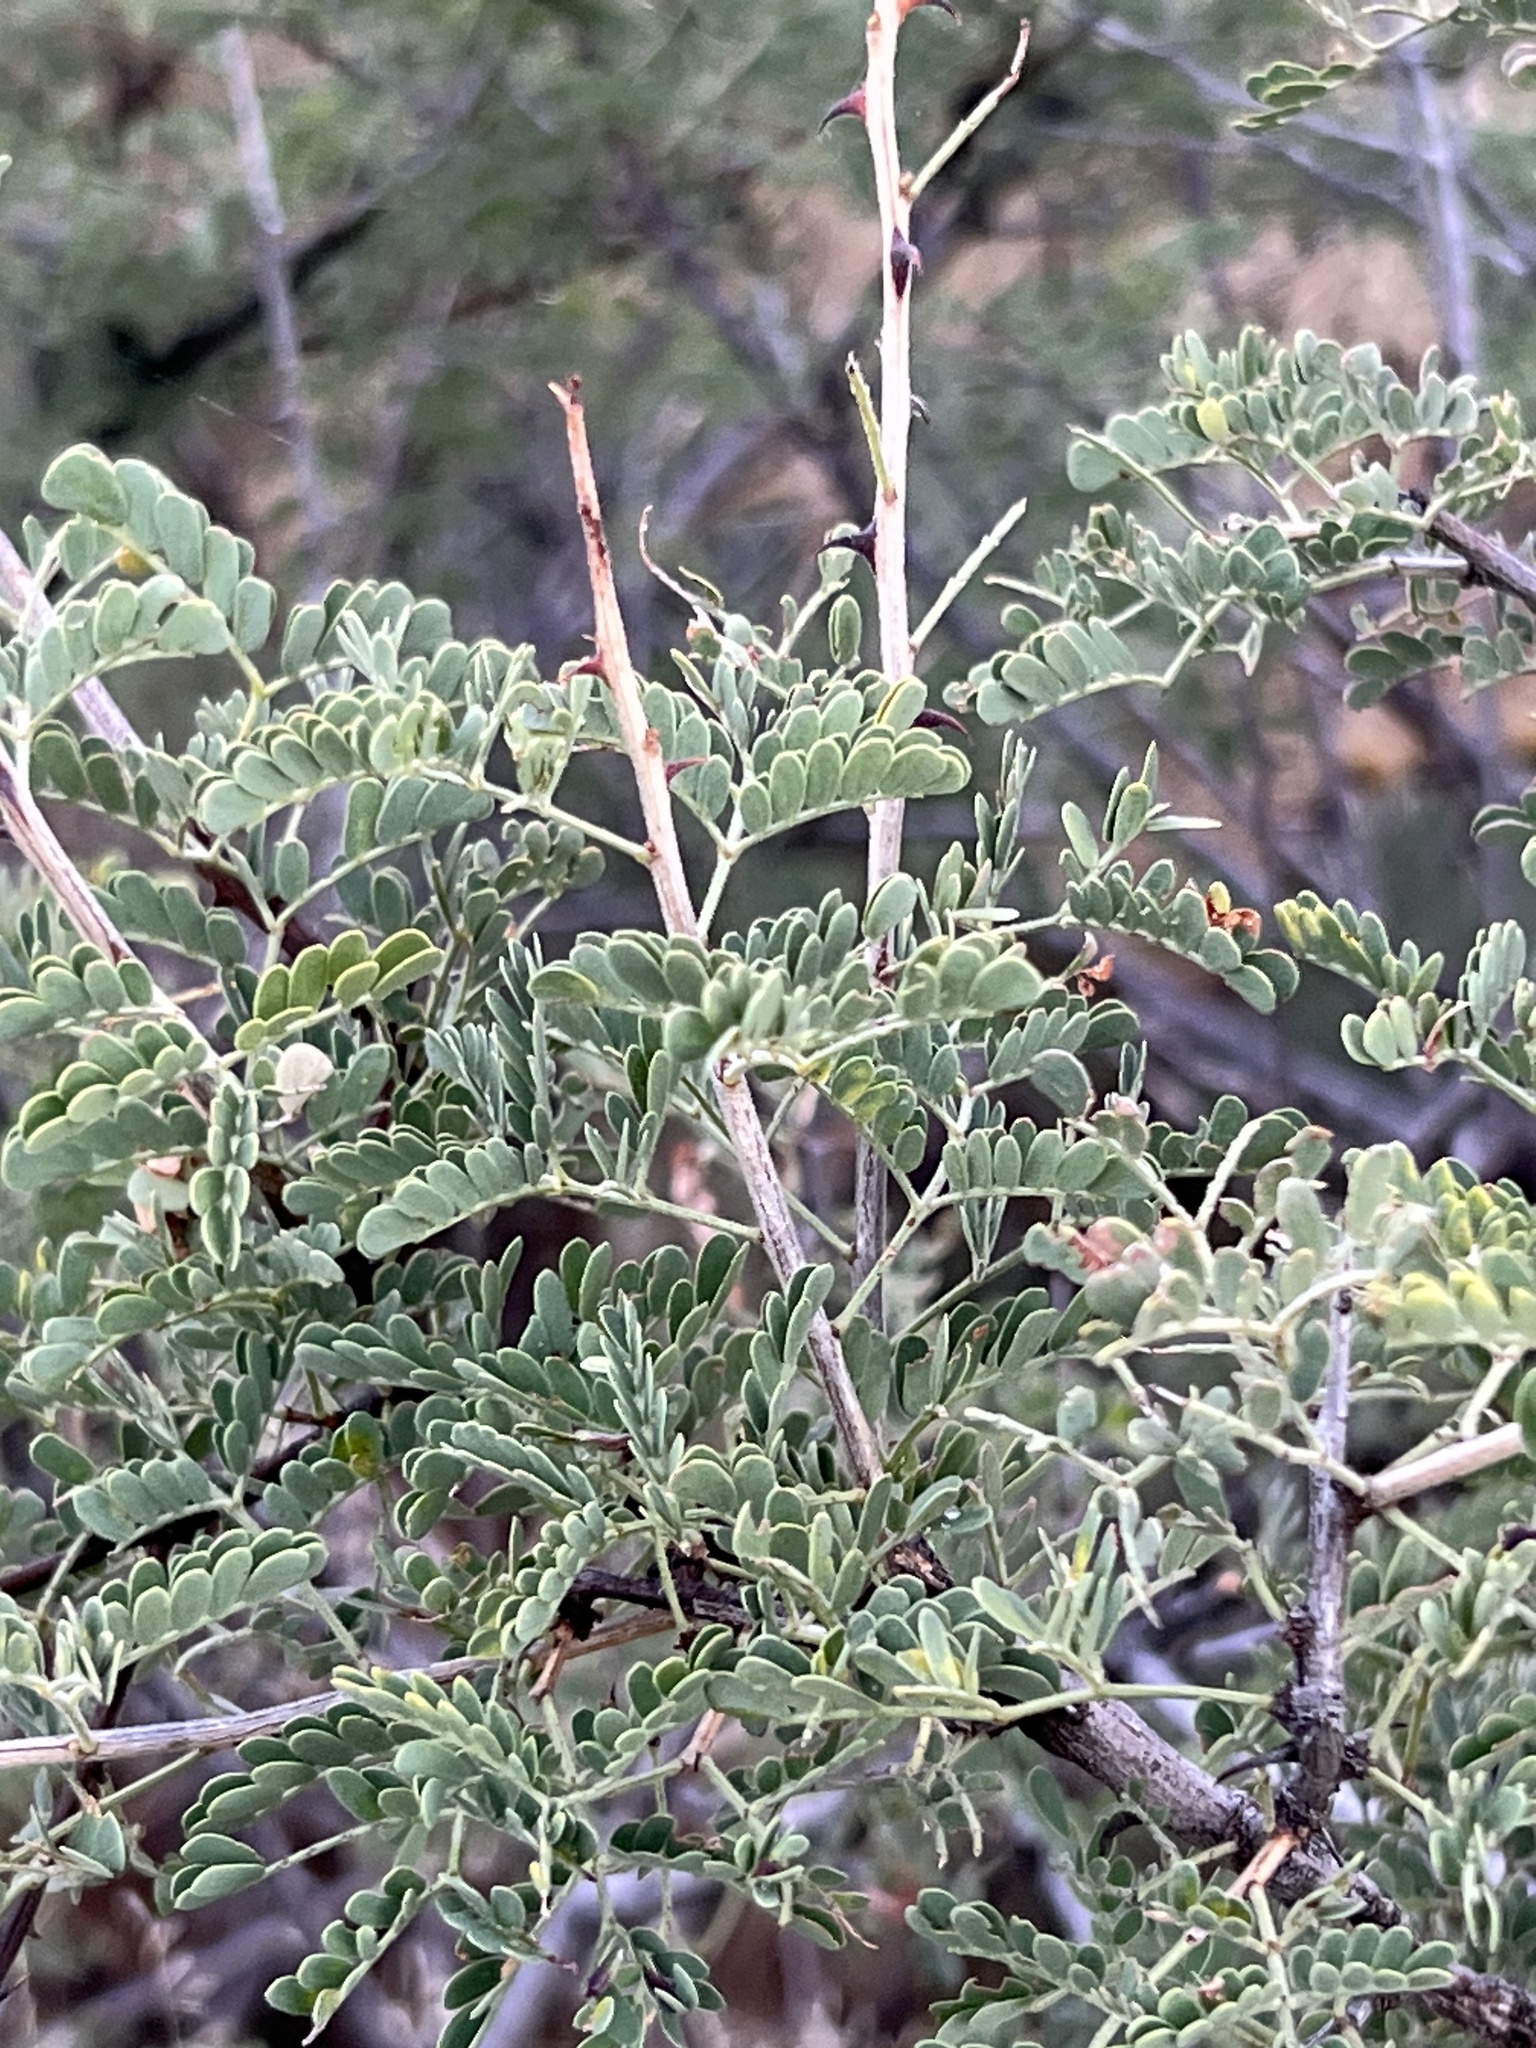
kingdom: Plantae
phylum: Tracheophyta
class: Magnoliopsida
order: Fabales
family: Fabaceae
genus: Senegalia
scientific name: Senegalia greggii
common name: Texas-mimosa
